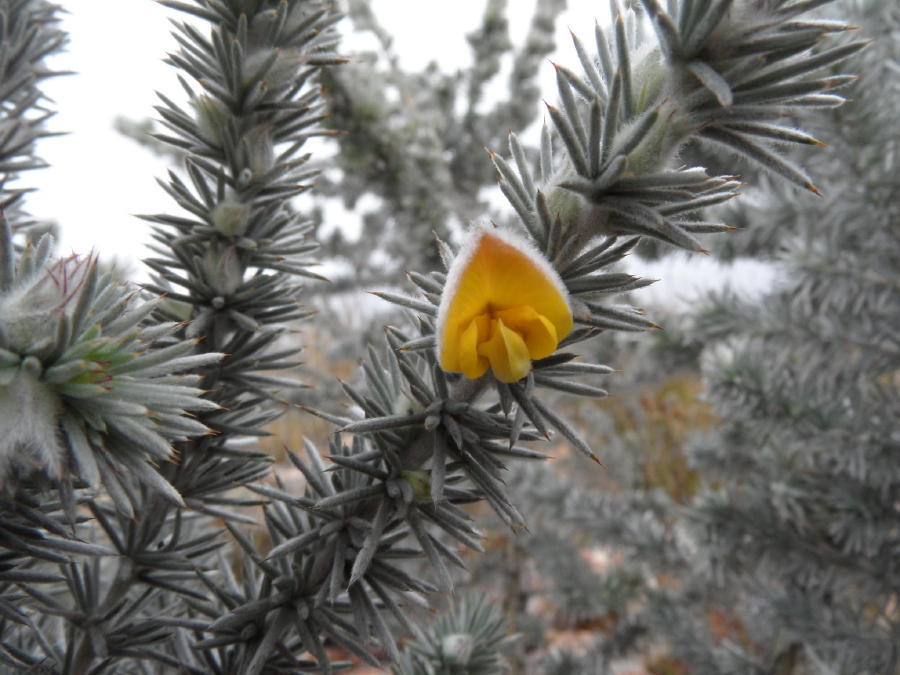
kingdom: Plantae
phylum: Tracheophyta
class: Magnoliopsida
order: Fabales
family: Fabaceae
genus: Aspalathus
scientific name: Aspalathus hystrix
